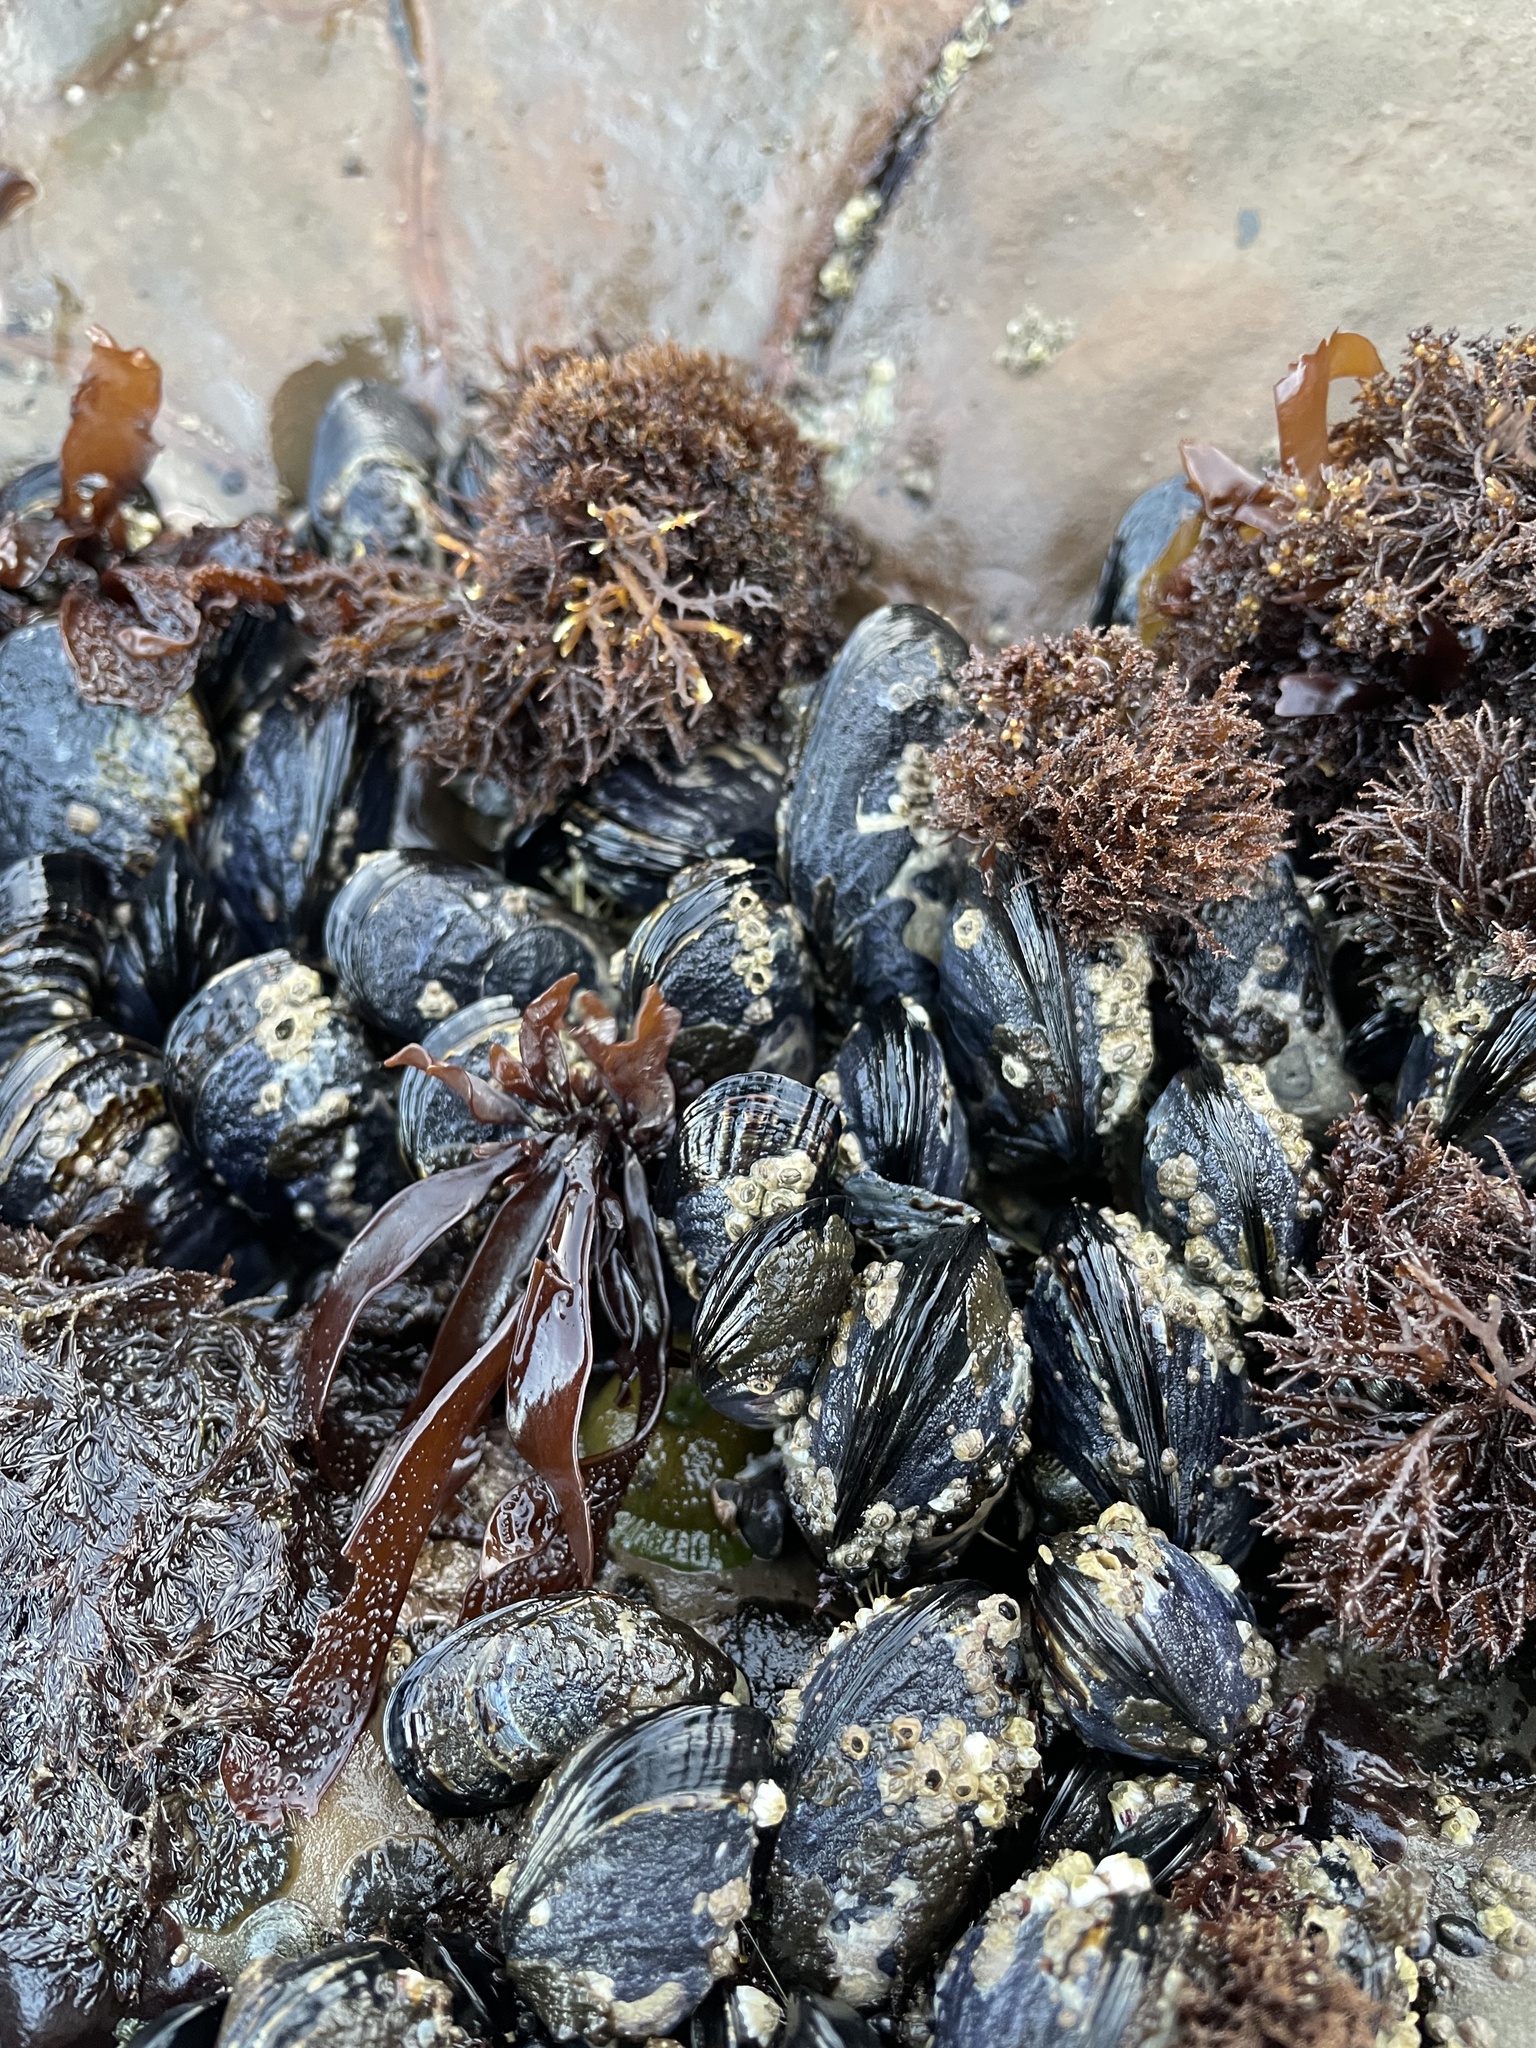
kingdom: Animalia
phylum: Mollusca
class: Bivalvia
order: Mytilida
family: Mytilidae
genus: Mytilus
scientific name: Mytilus californianus
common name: California mussel
